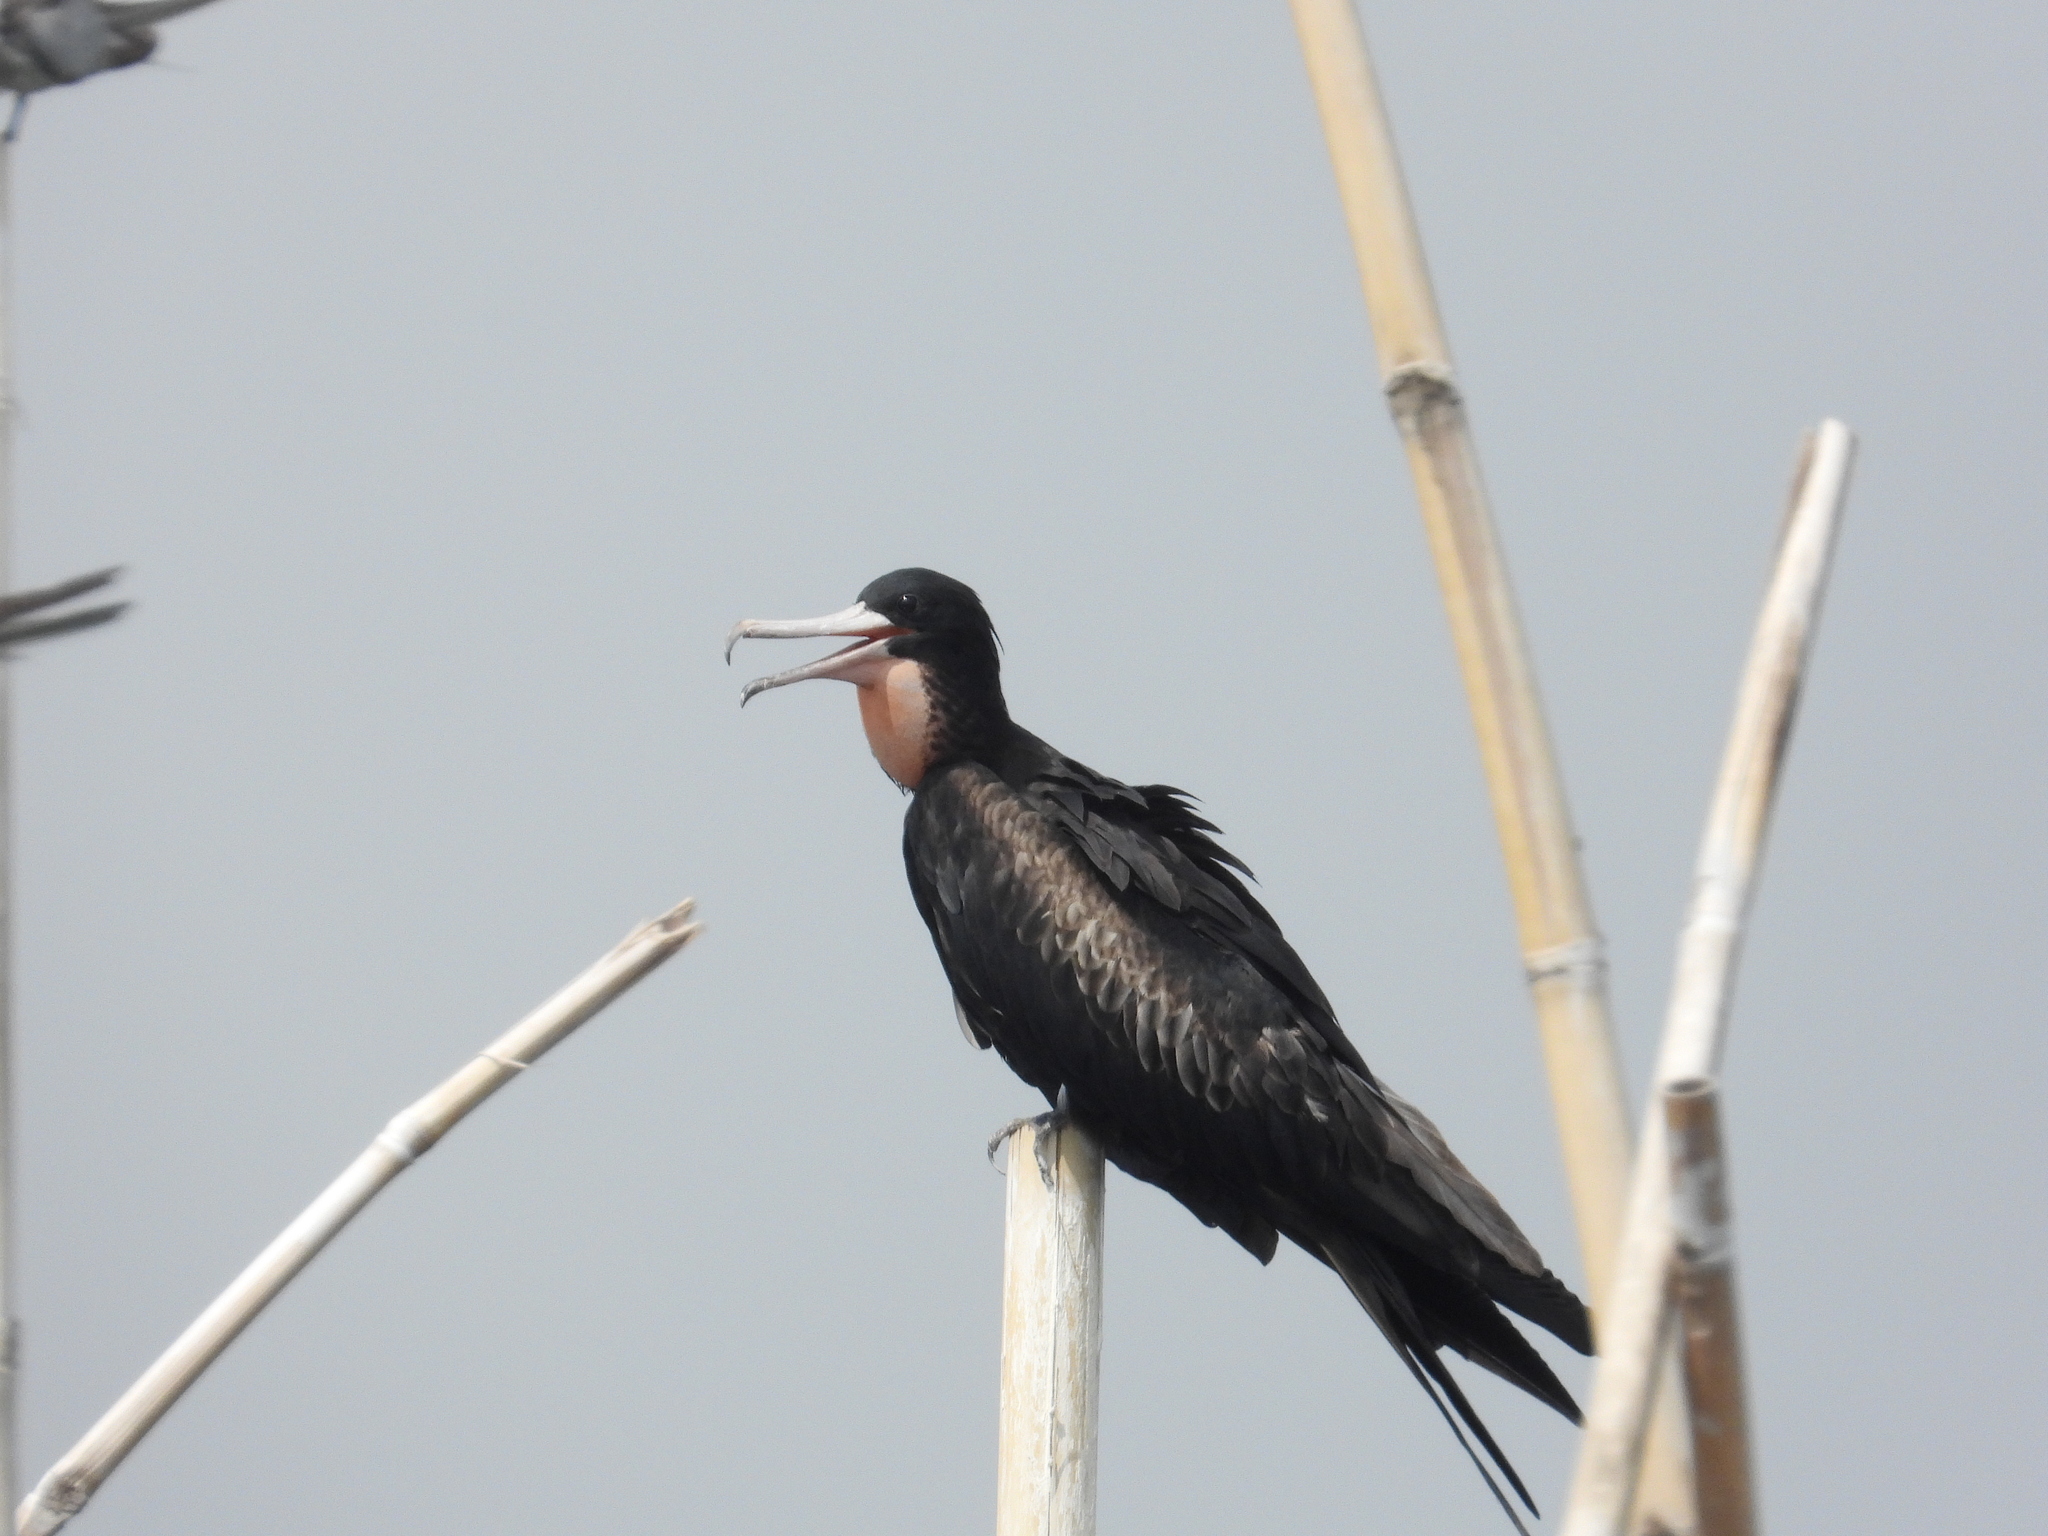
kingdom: Animalia
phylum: Chordata
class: Aves
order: Suliformes
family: Fregatidae
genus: Fregata
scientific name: Fregata andrewsi
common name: Christmas frigatebird
